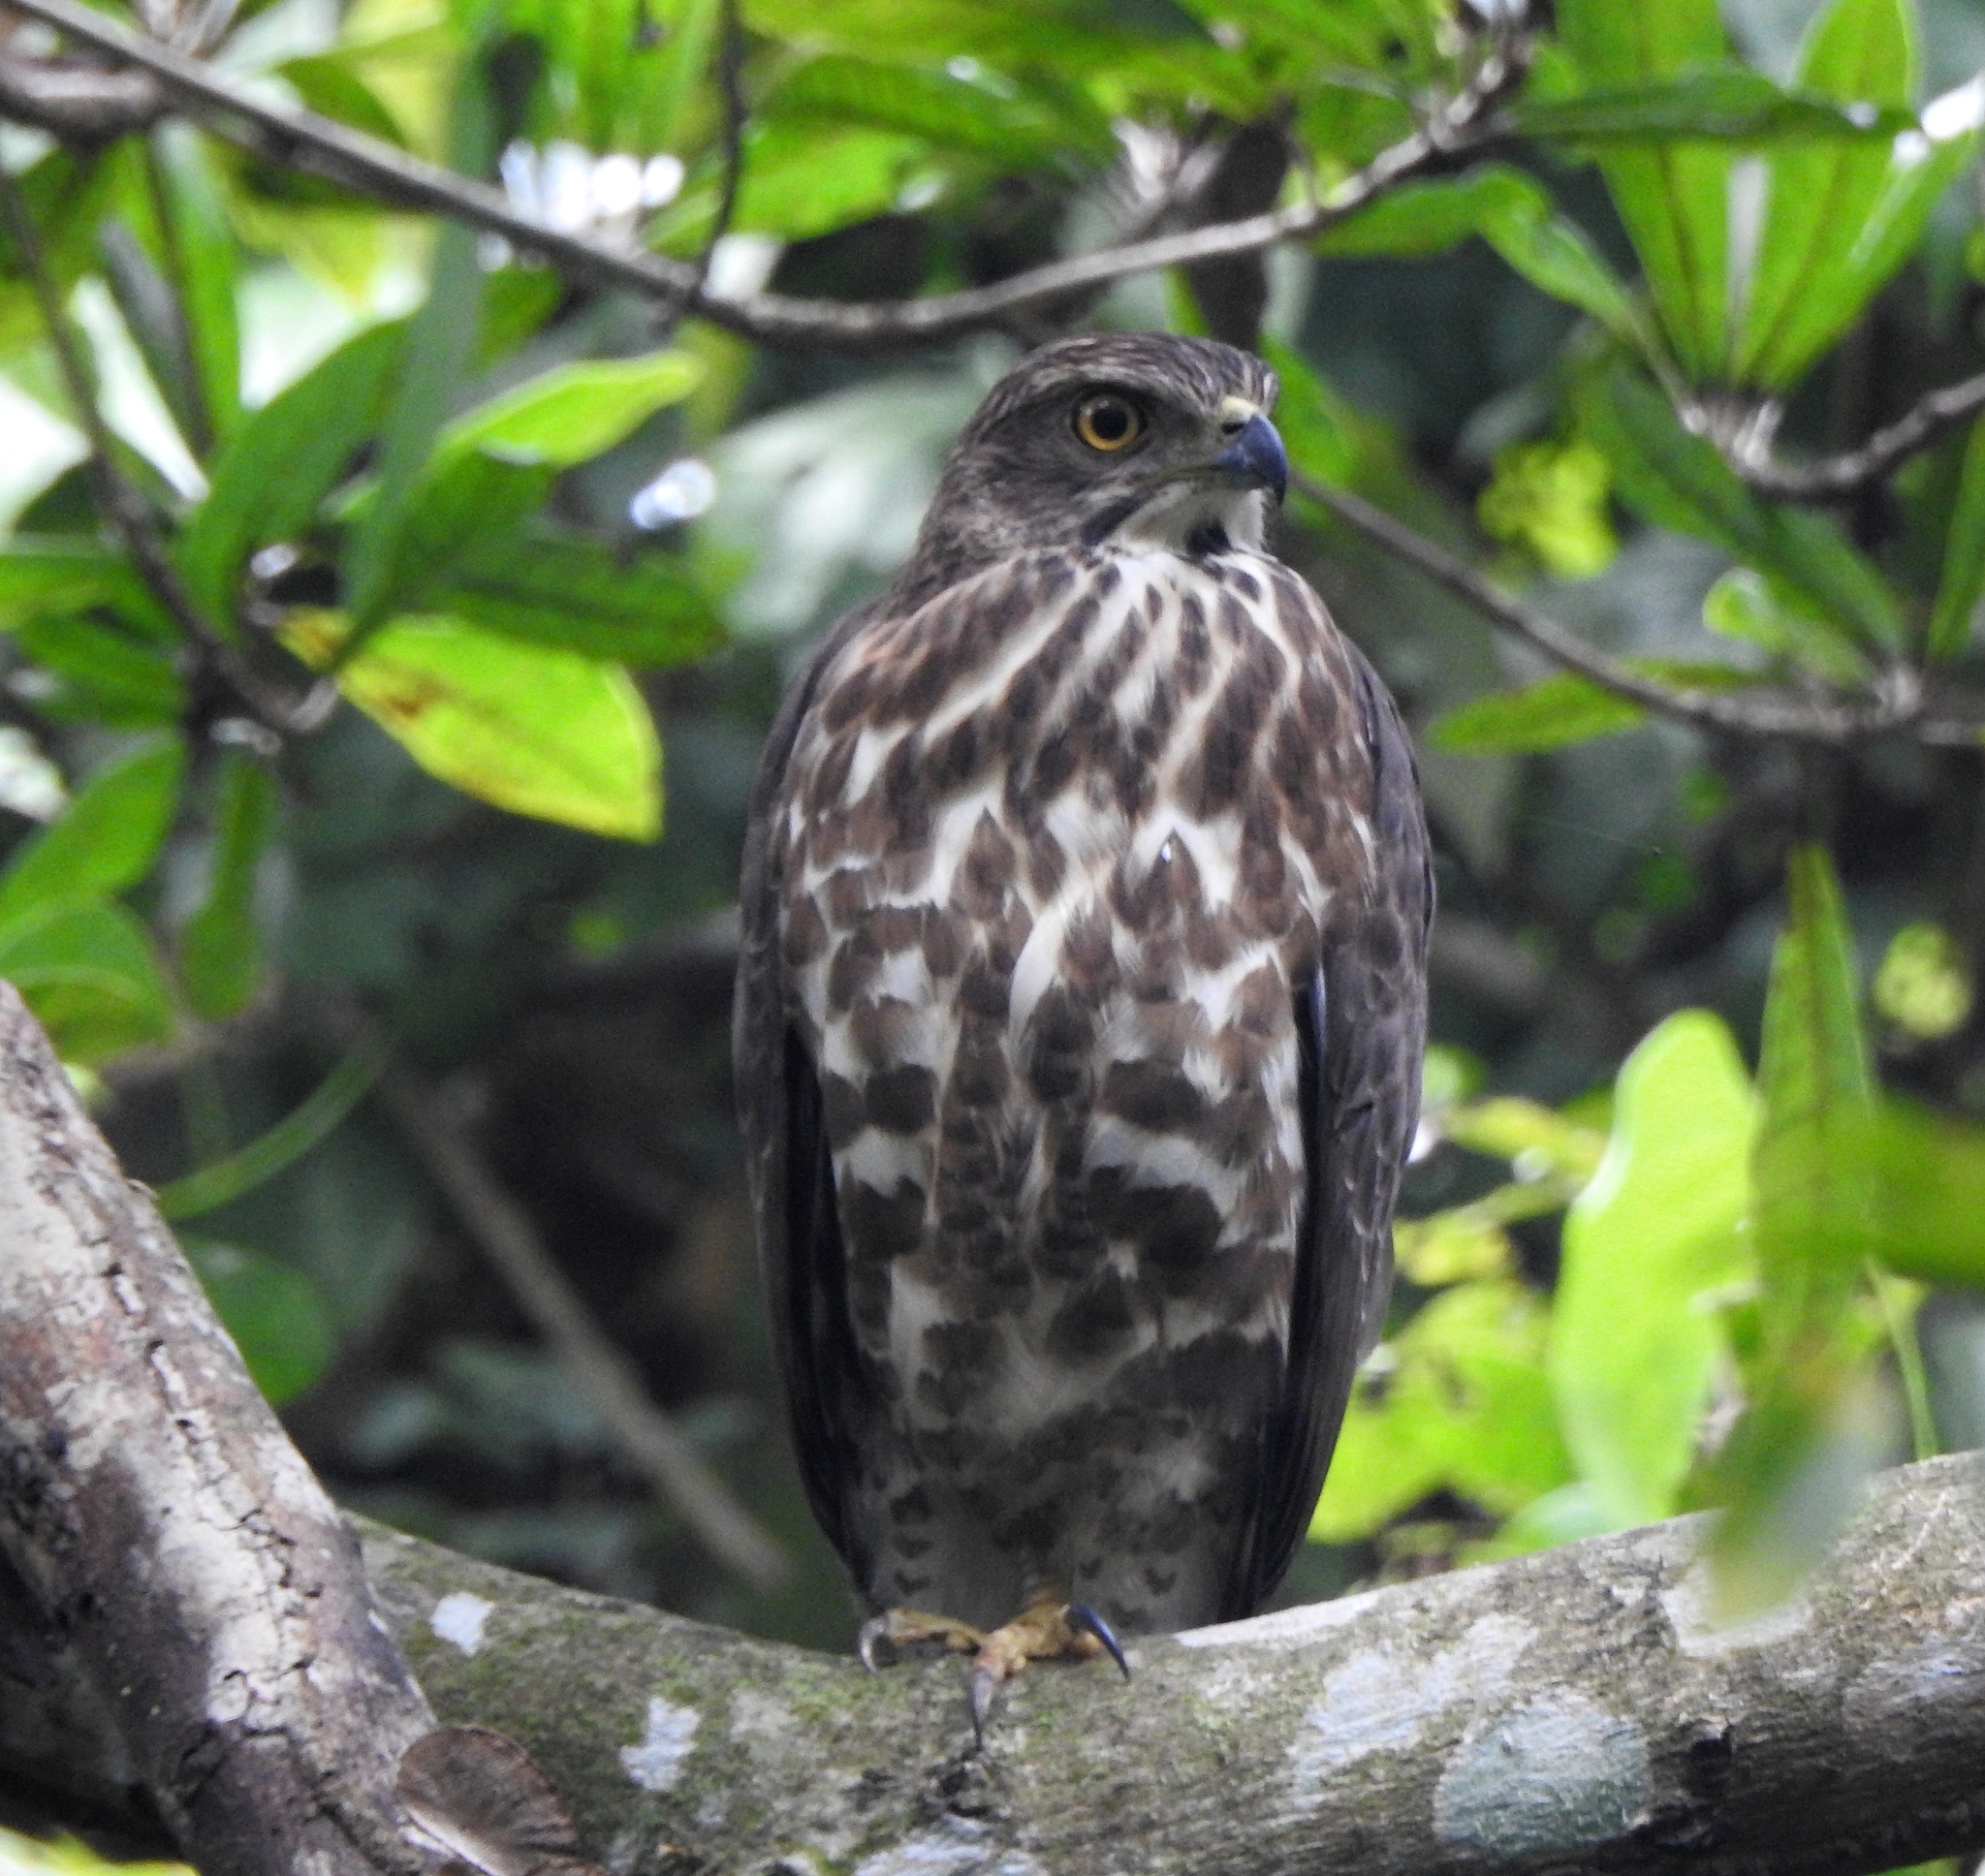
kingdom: Animalia
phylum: Chordata
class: Aves
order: Accipitriformes
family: Accipitridae
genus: Accipiter
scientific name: Accipiter trivirgatus
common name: Crested goshawk
